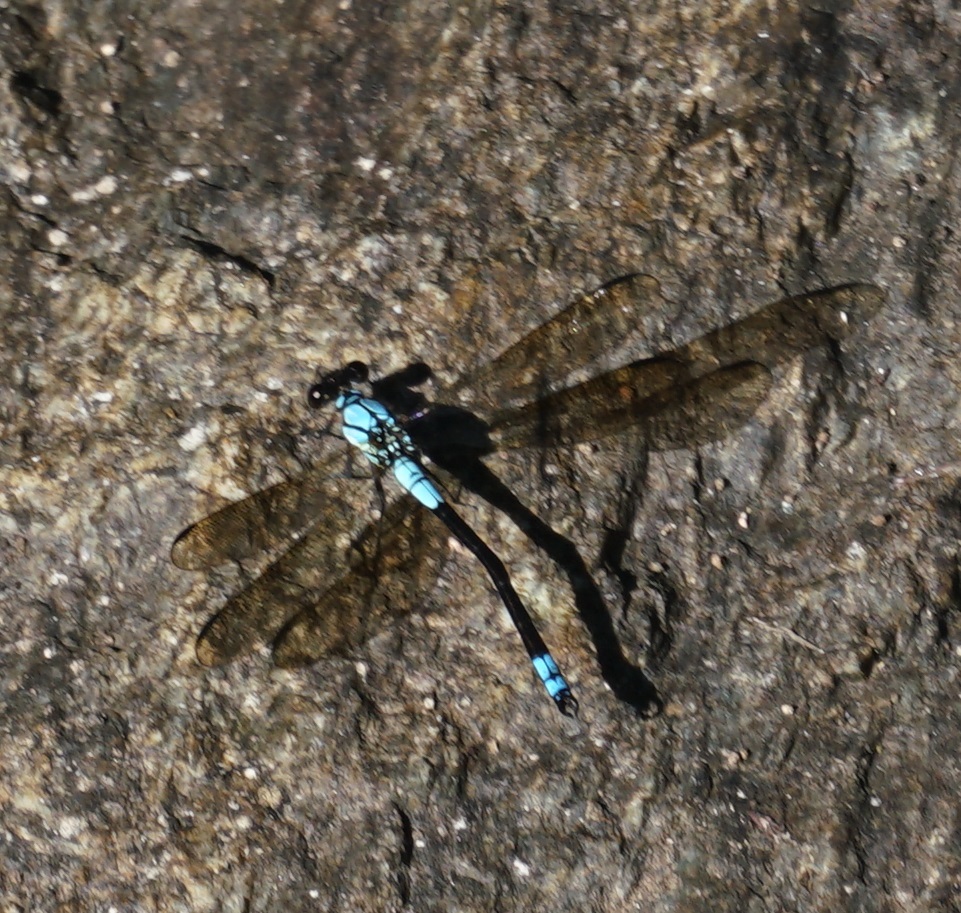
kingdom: Animalia
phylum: Arthropoda
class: Insecta
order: Odonata
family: Lestoideidae
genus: Diphlebia
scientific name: Diphlebia euphoeoides
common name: Tropical rockmaster
